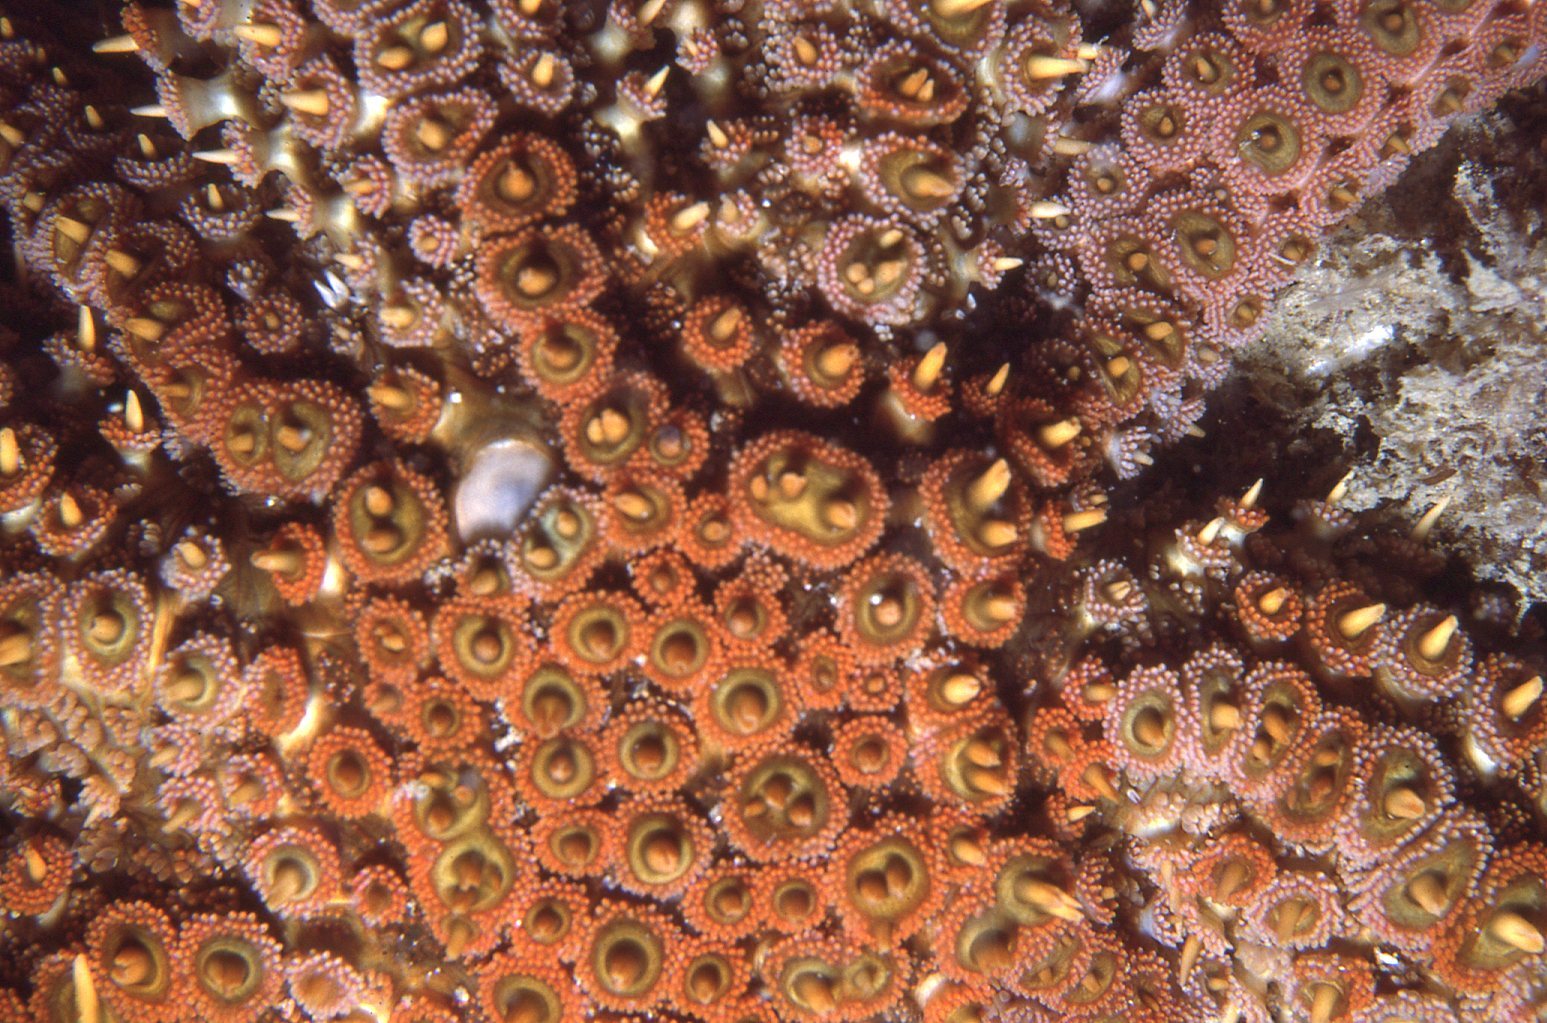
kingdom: Animalia
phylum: Echinodermata
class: Asteroidea
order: Forcipulatida
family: Asteriidae
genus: Coscinasterias
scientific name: Coscinasterias muricata
